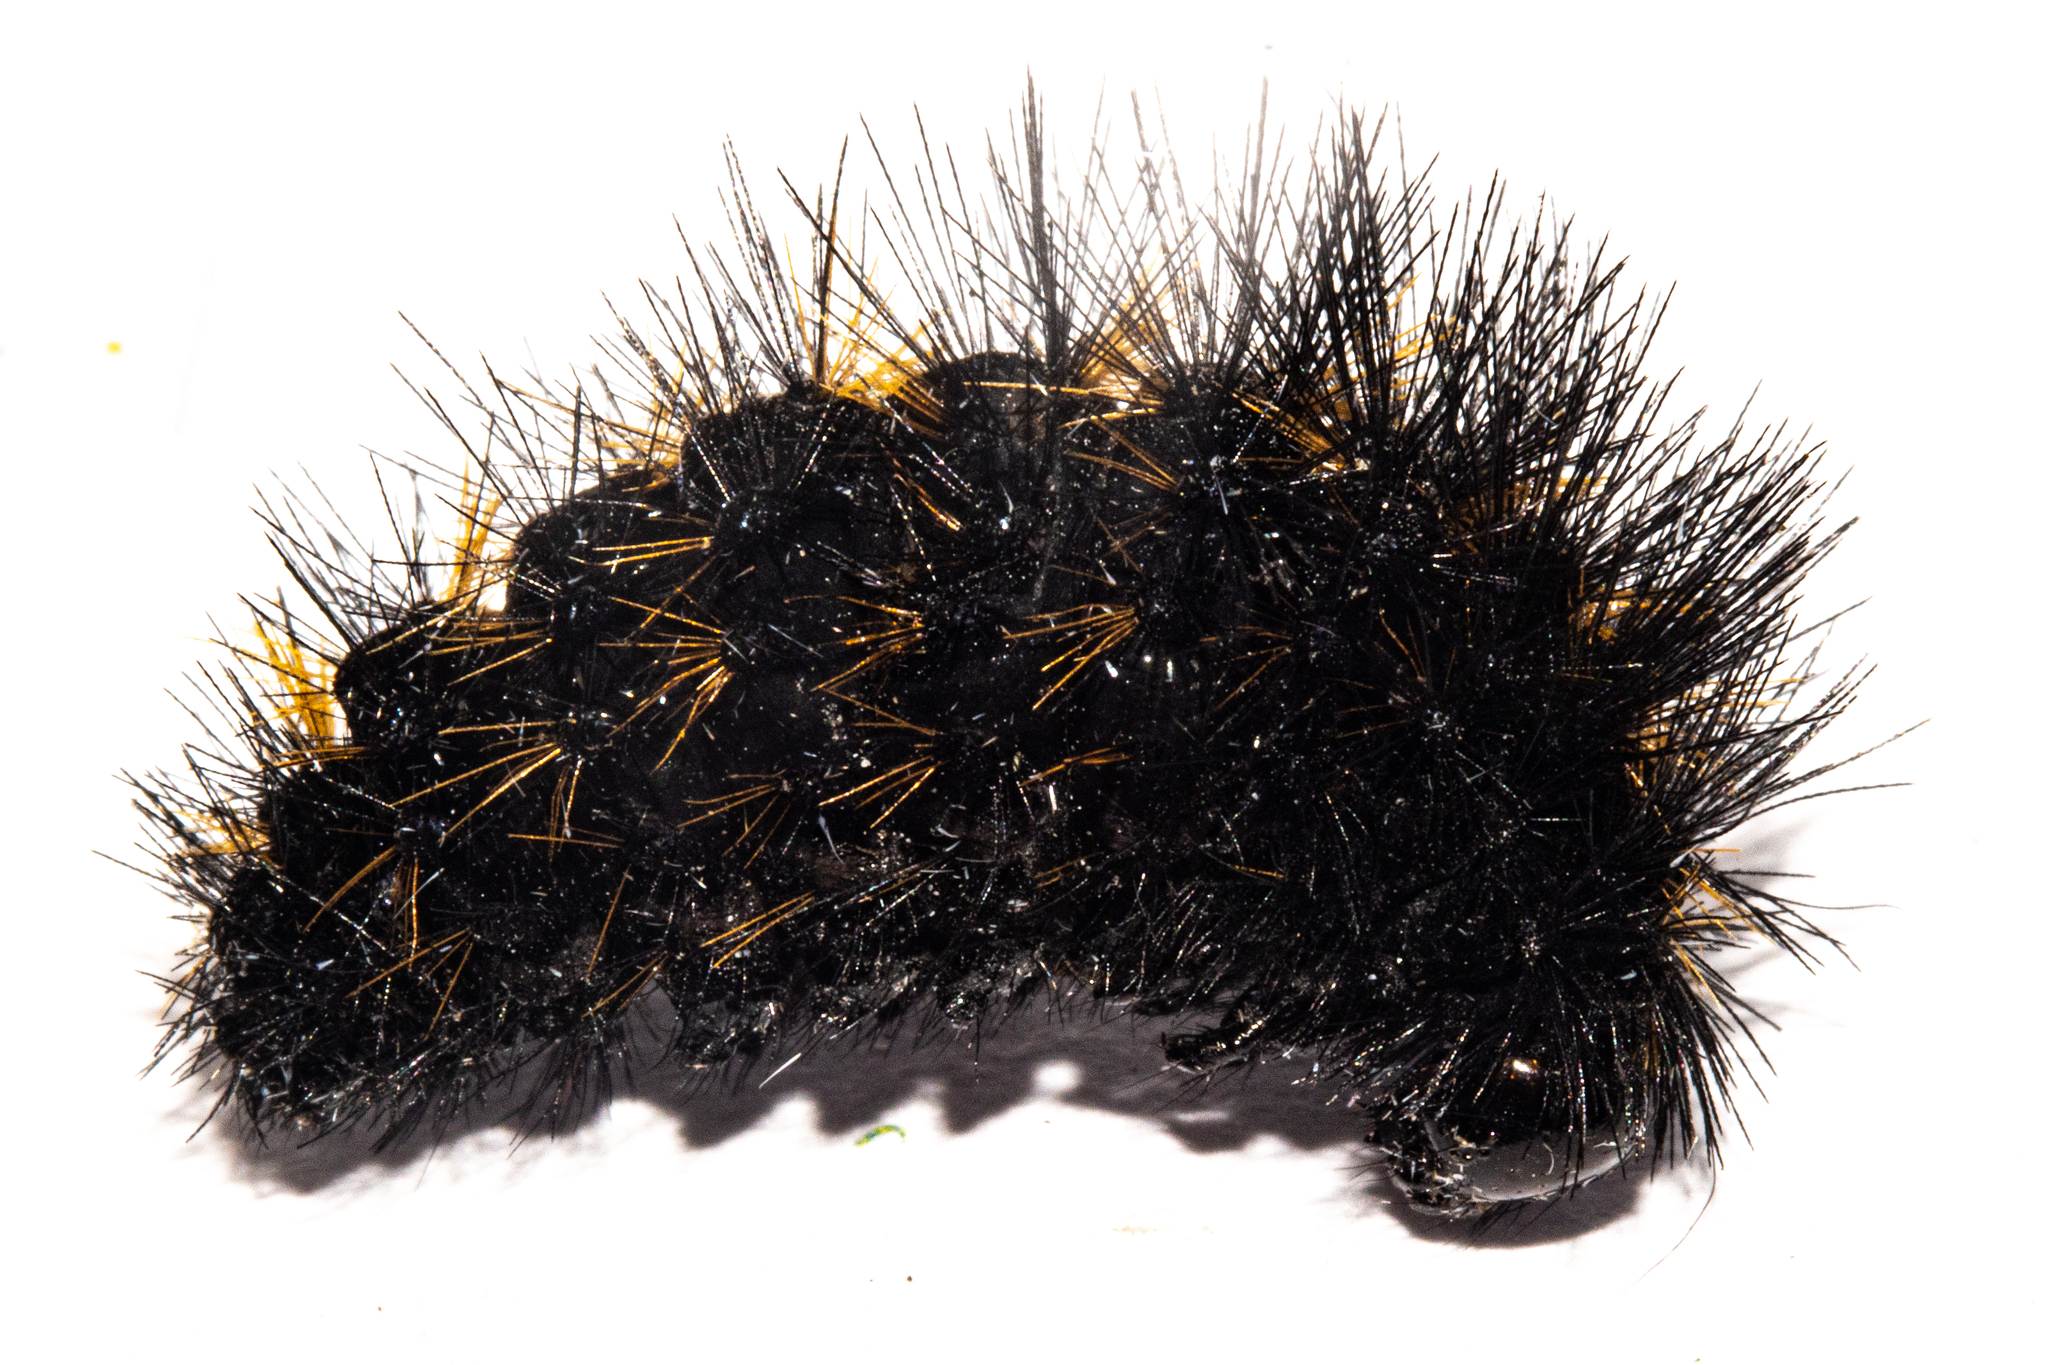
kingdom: Animalia
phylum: Arthropoda
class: Insecta
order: Lepidoptera
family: Erebidae
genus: Metacrias
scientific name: Metacrias erichrysa
